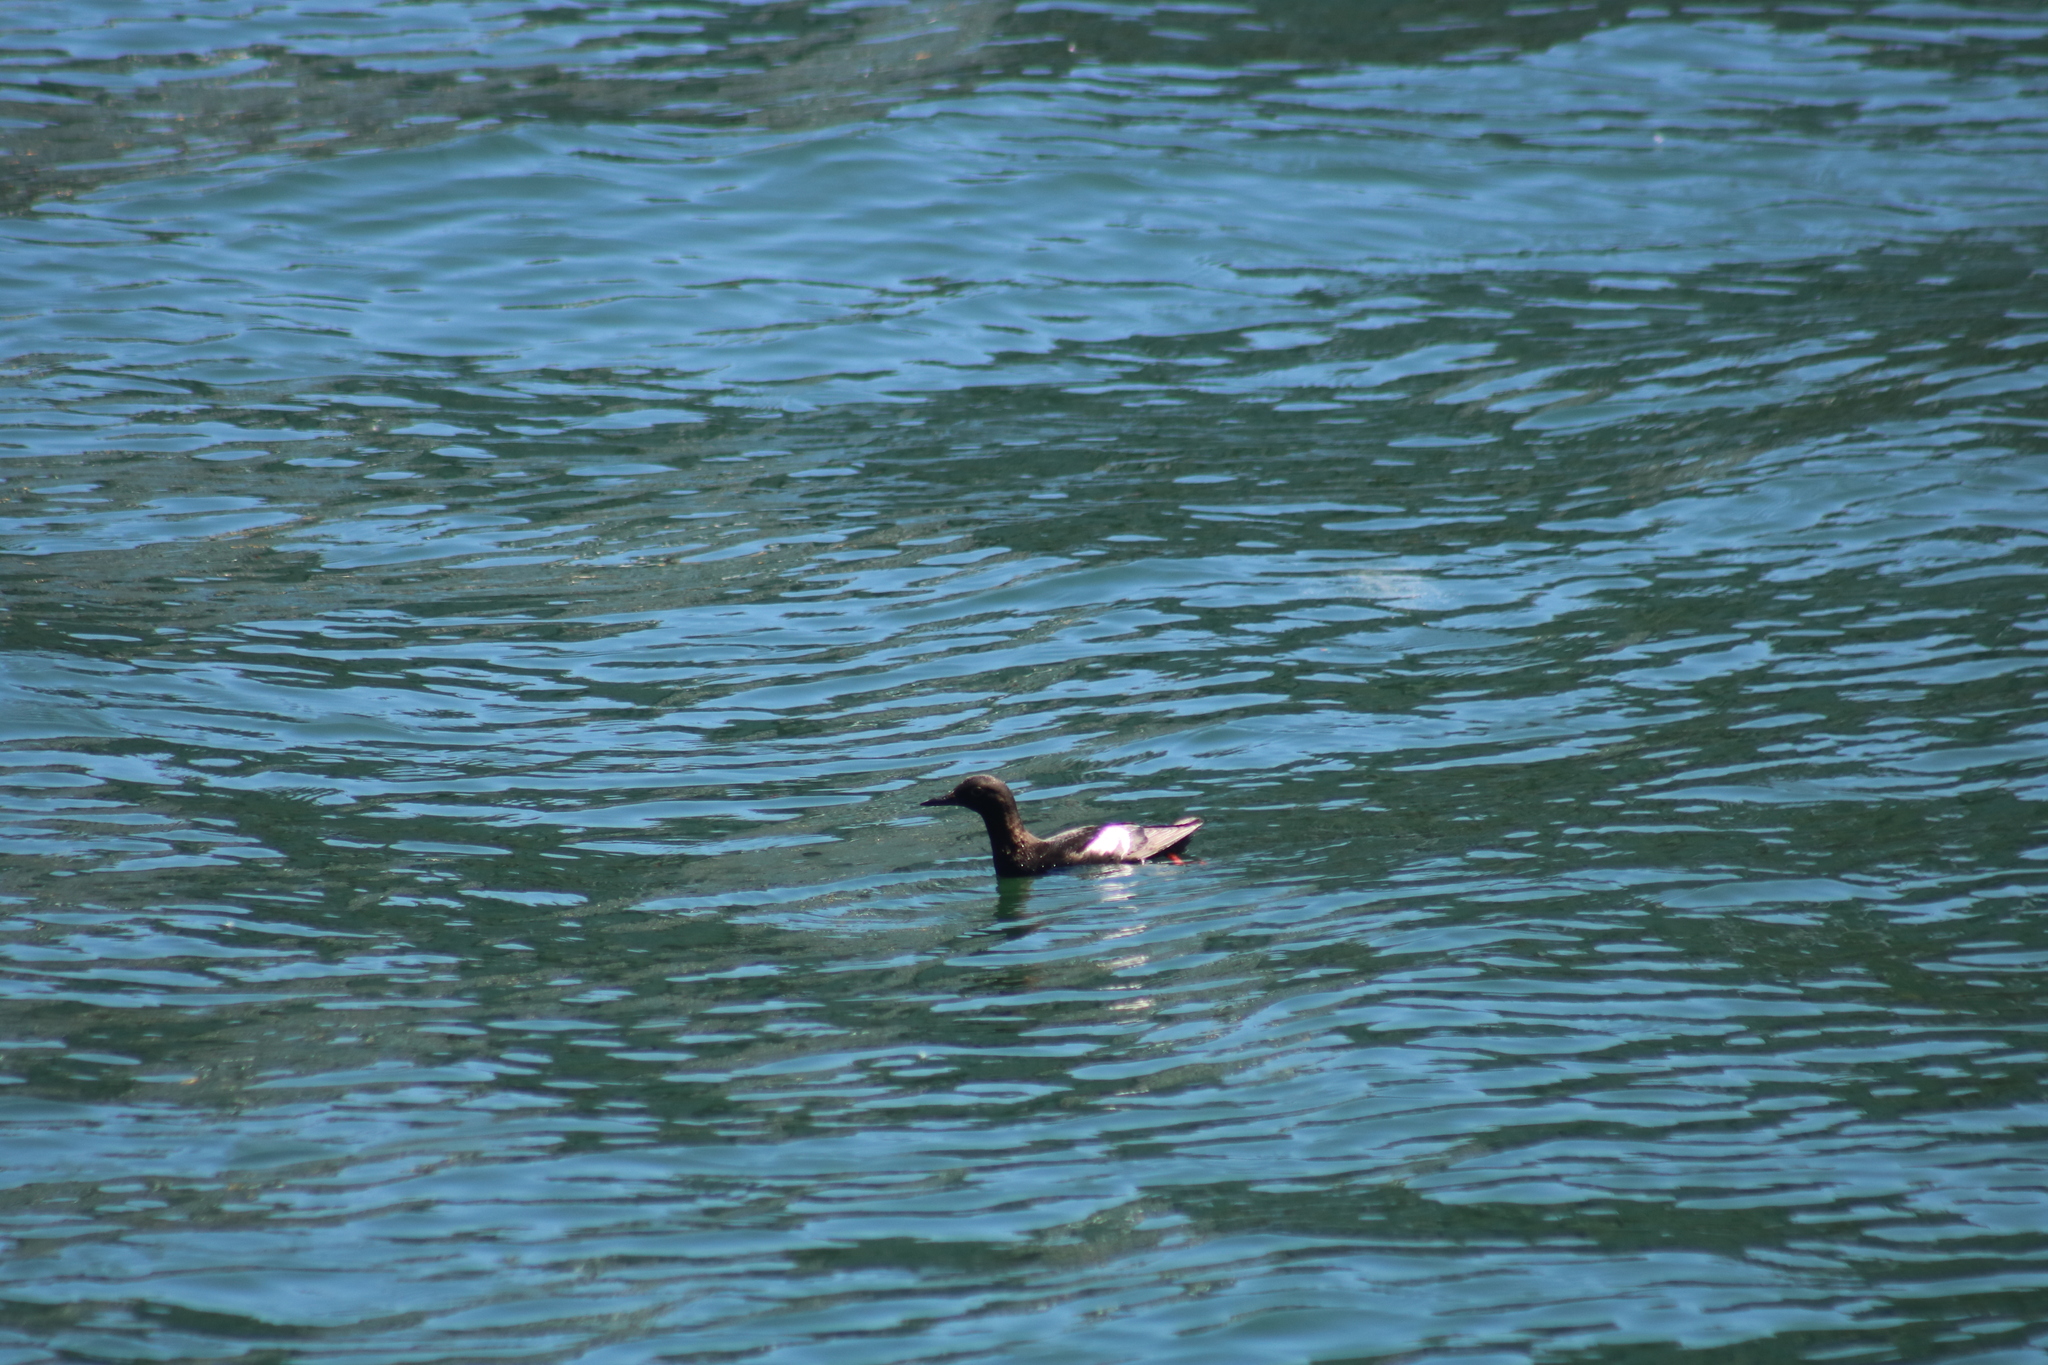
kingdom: Animalia
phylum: Chordata
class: Aves
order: Charadriiformes
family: Alcidae
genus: Cepphus
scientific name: Cepphus columba
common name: Pigeon guillemot
